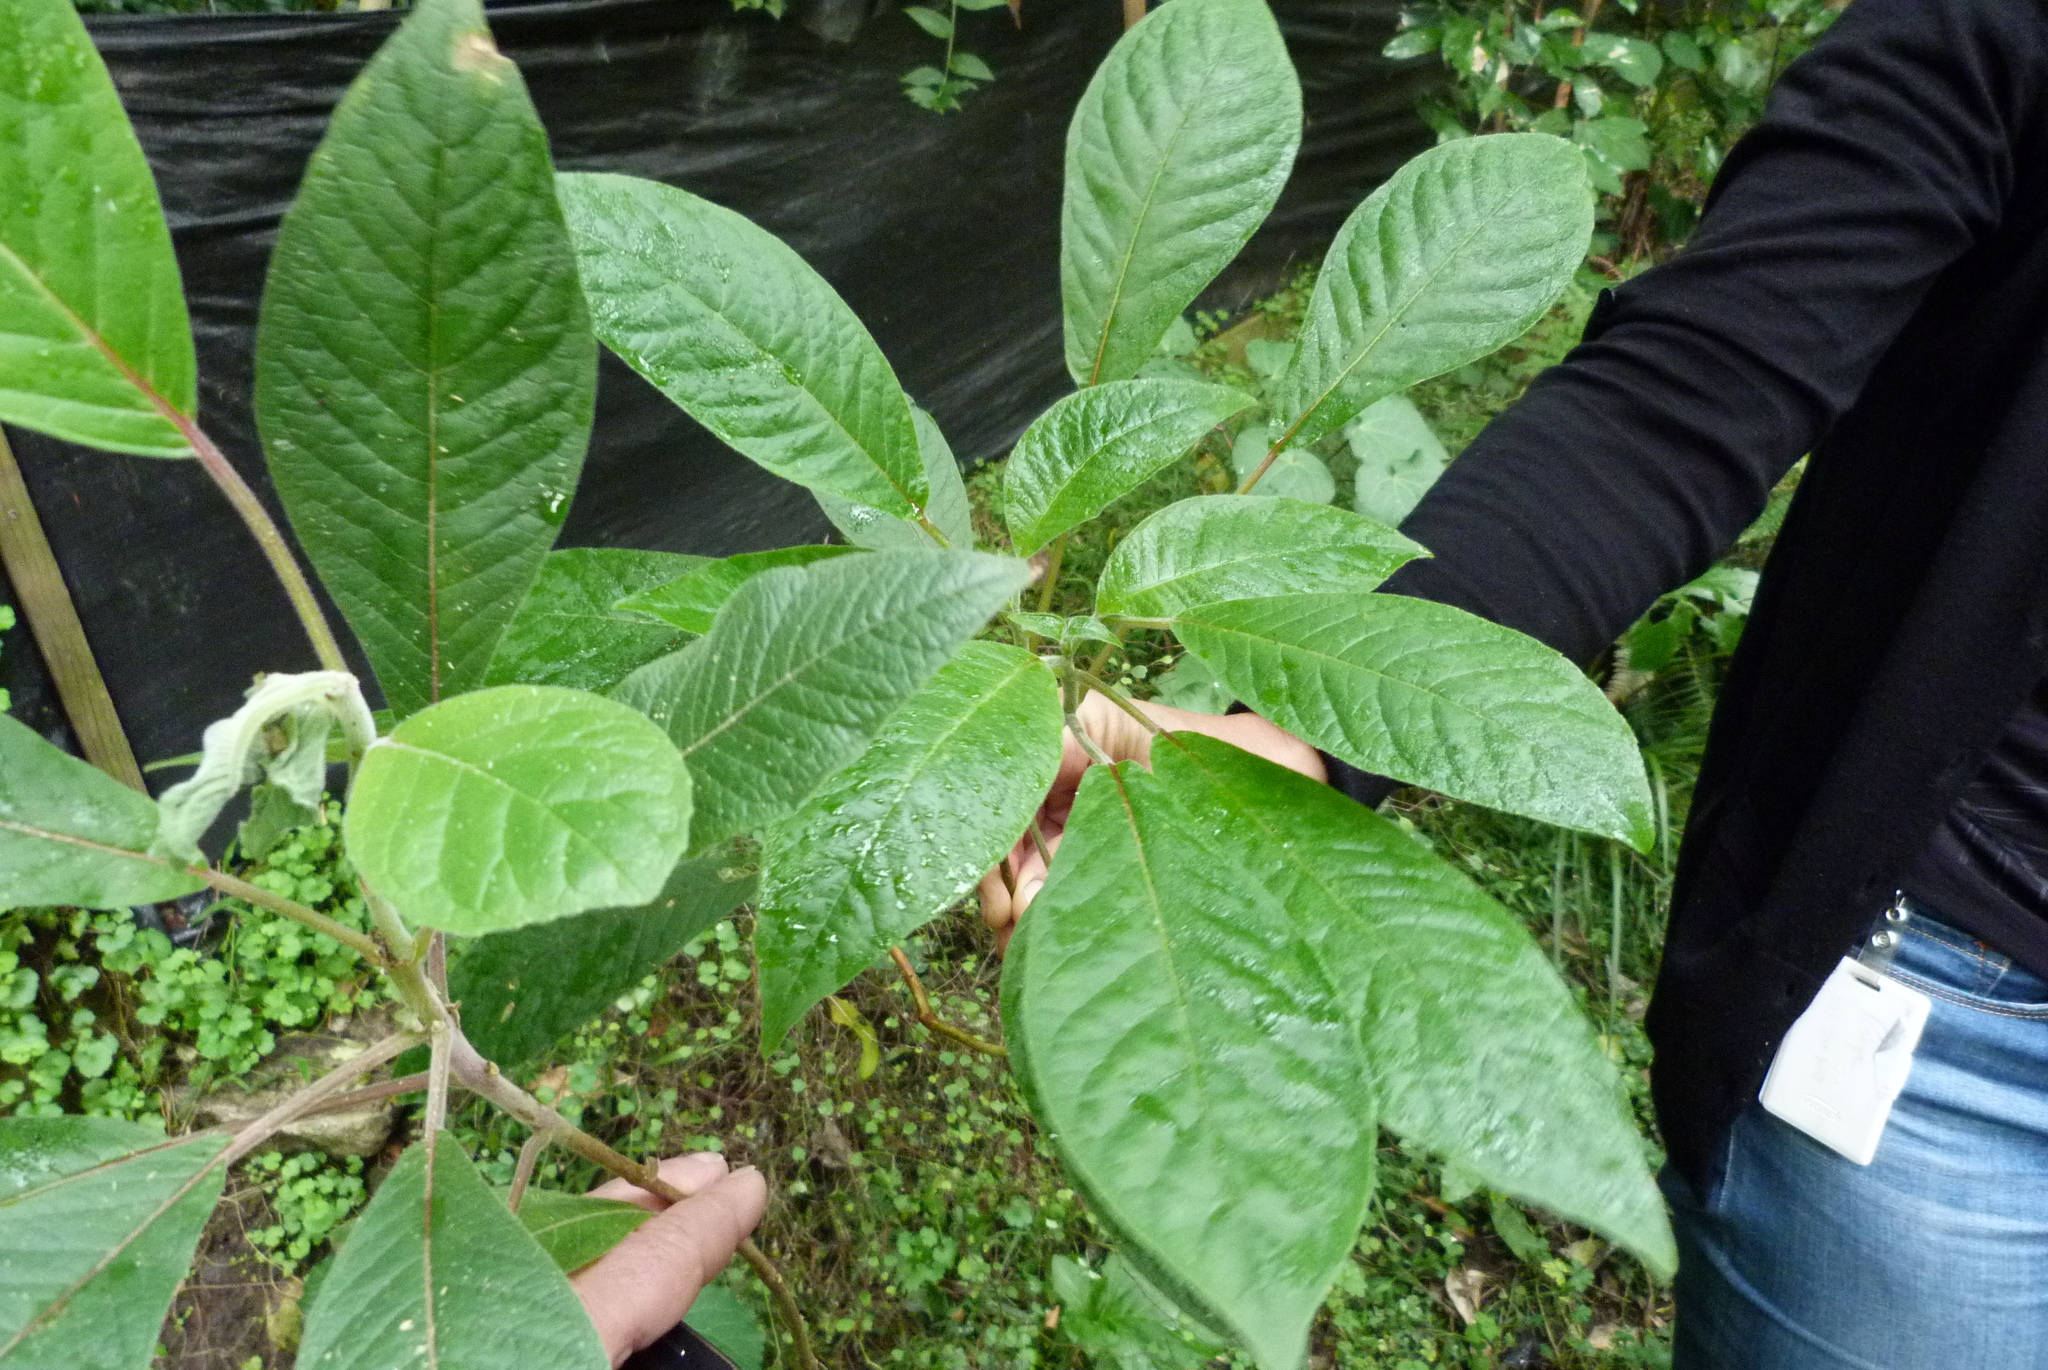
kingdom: Plantae
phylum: Tracheophyta
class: Magnoliopsida
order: Myrtales
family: Onagraceae
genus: Fuchsia
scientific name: Fuchsia boliviana
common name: Bolivian fuchsia
